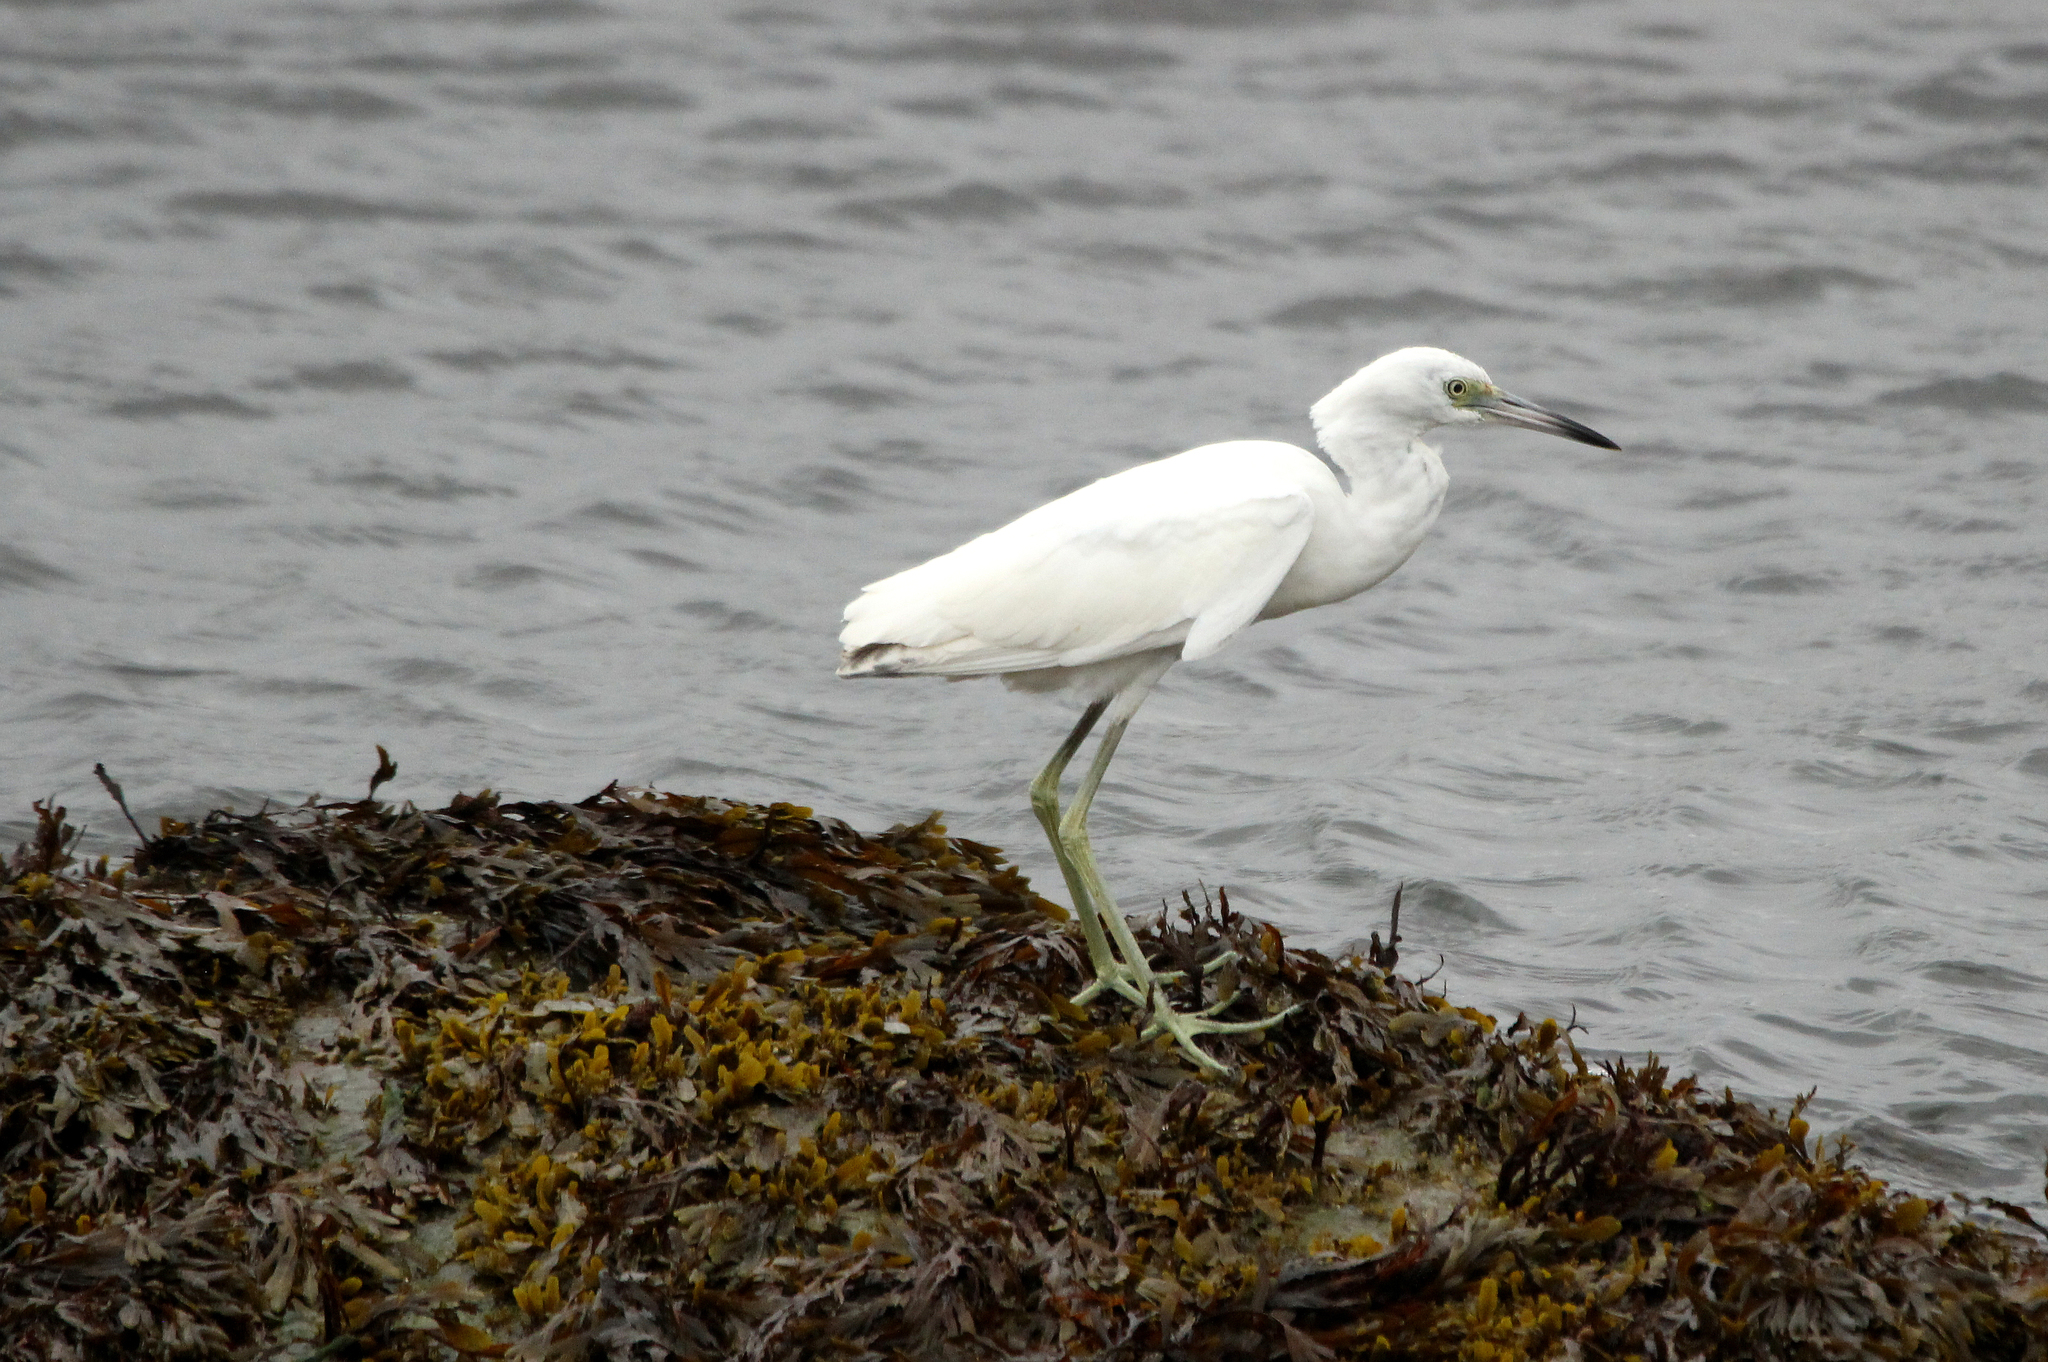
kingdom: Animalia
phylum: Chordata
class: Aves
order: Pelecaniformes
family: Ardeidae
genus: Egretta
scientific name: Egretta caerulea
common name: Little blue heron
